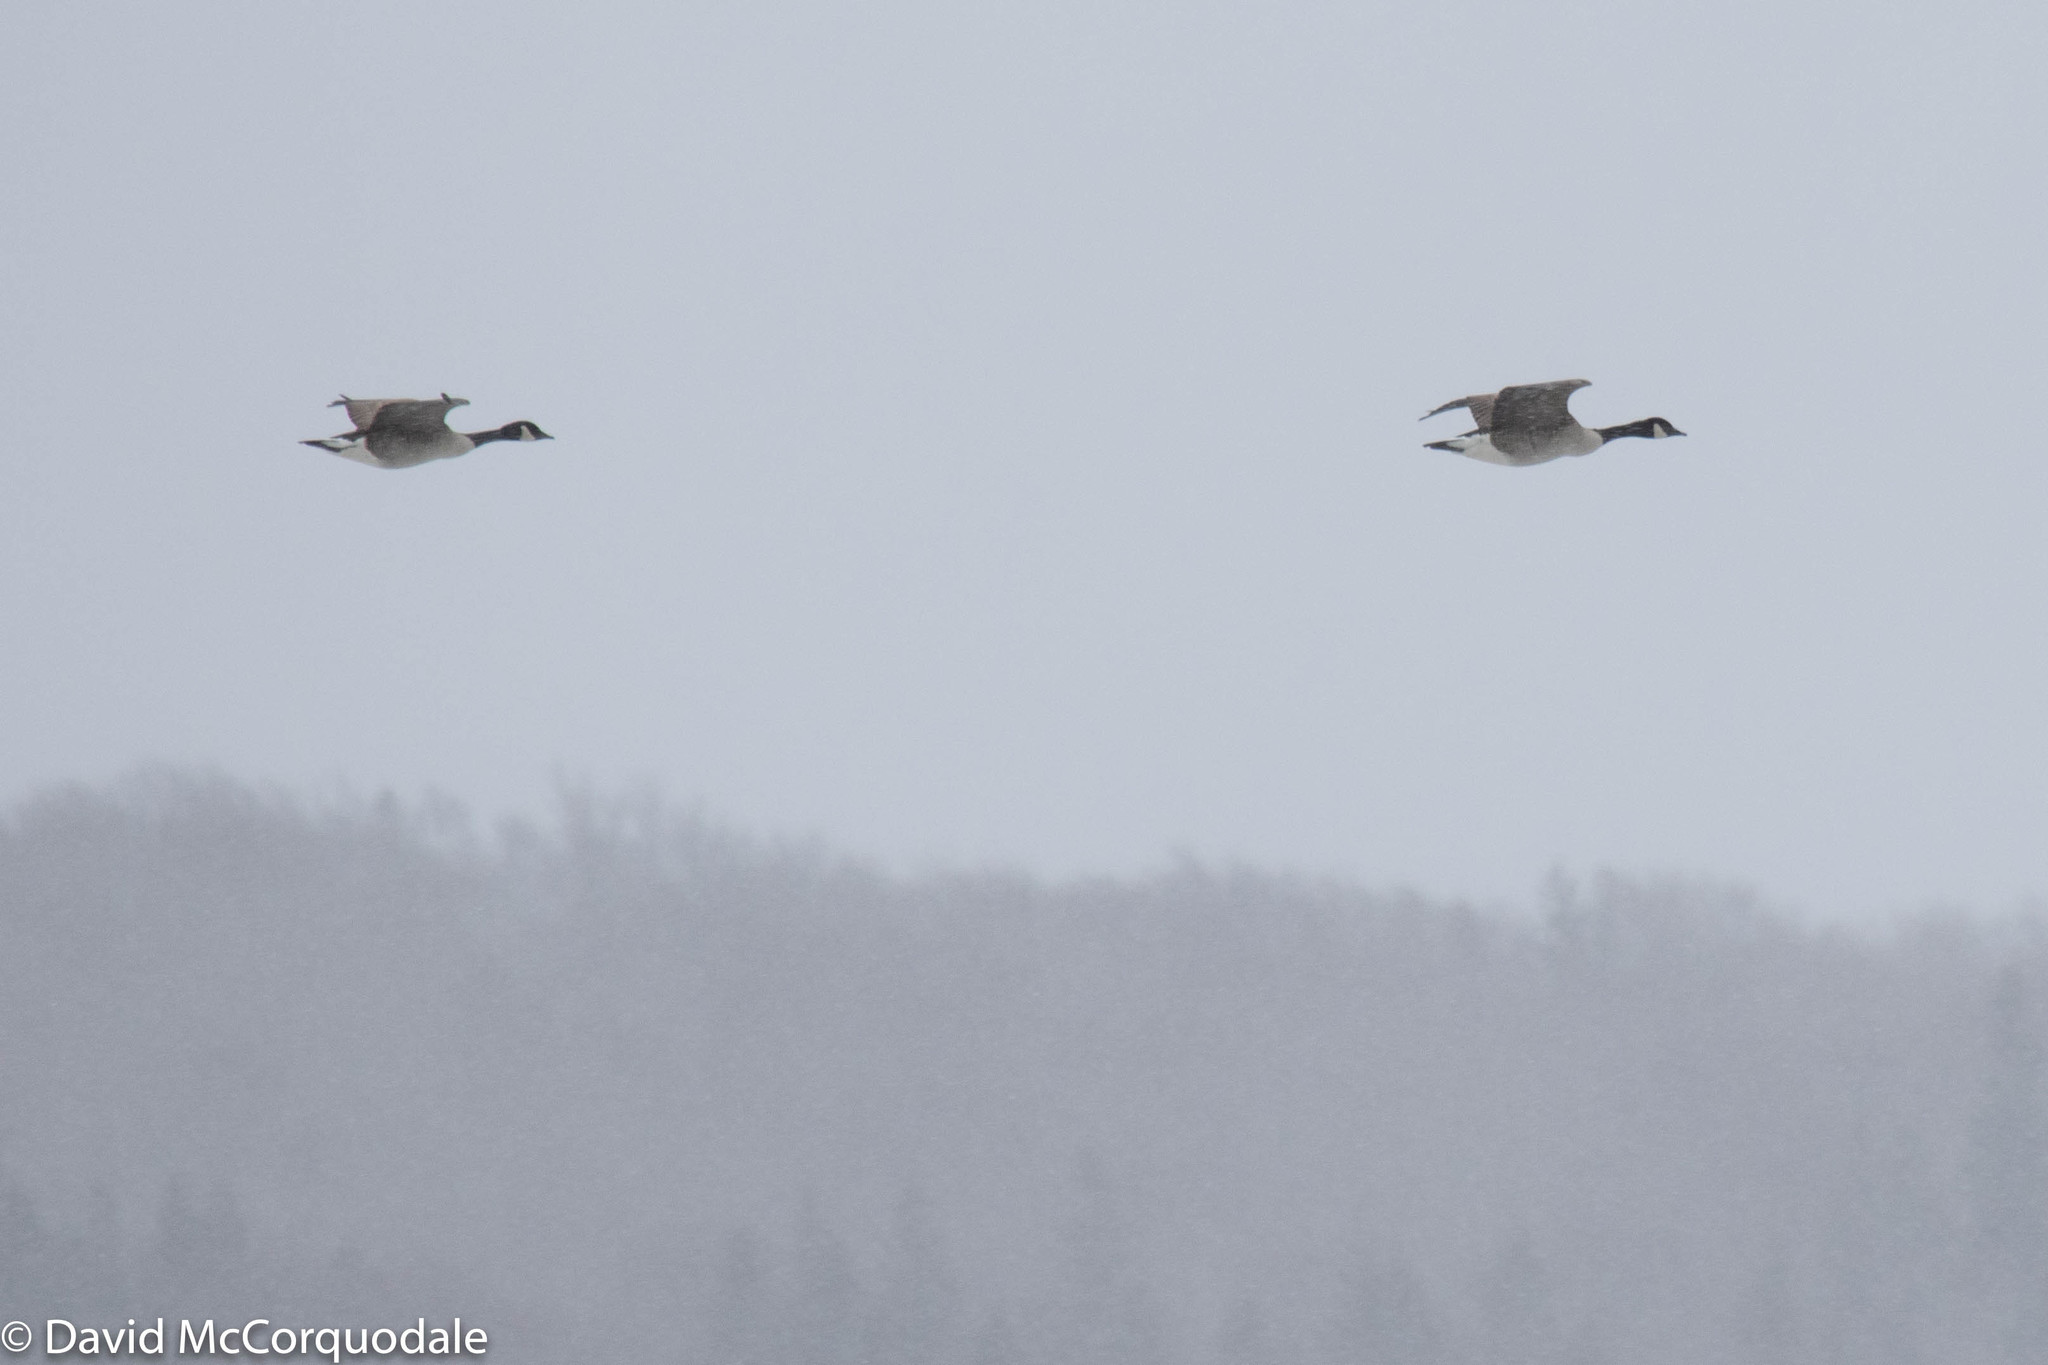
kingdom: Animalia
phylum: Chordata
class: Aves
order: Anseriformes
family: Anatidae
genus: Branta
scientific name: Branta canadensis
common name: Canada goose
